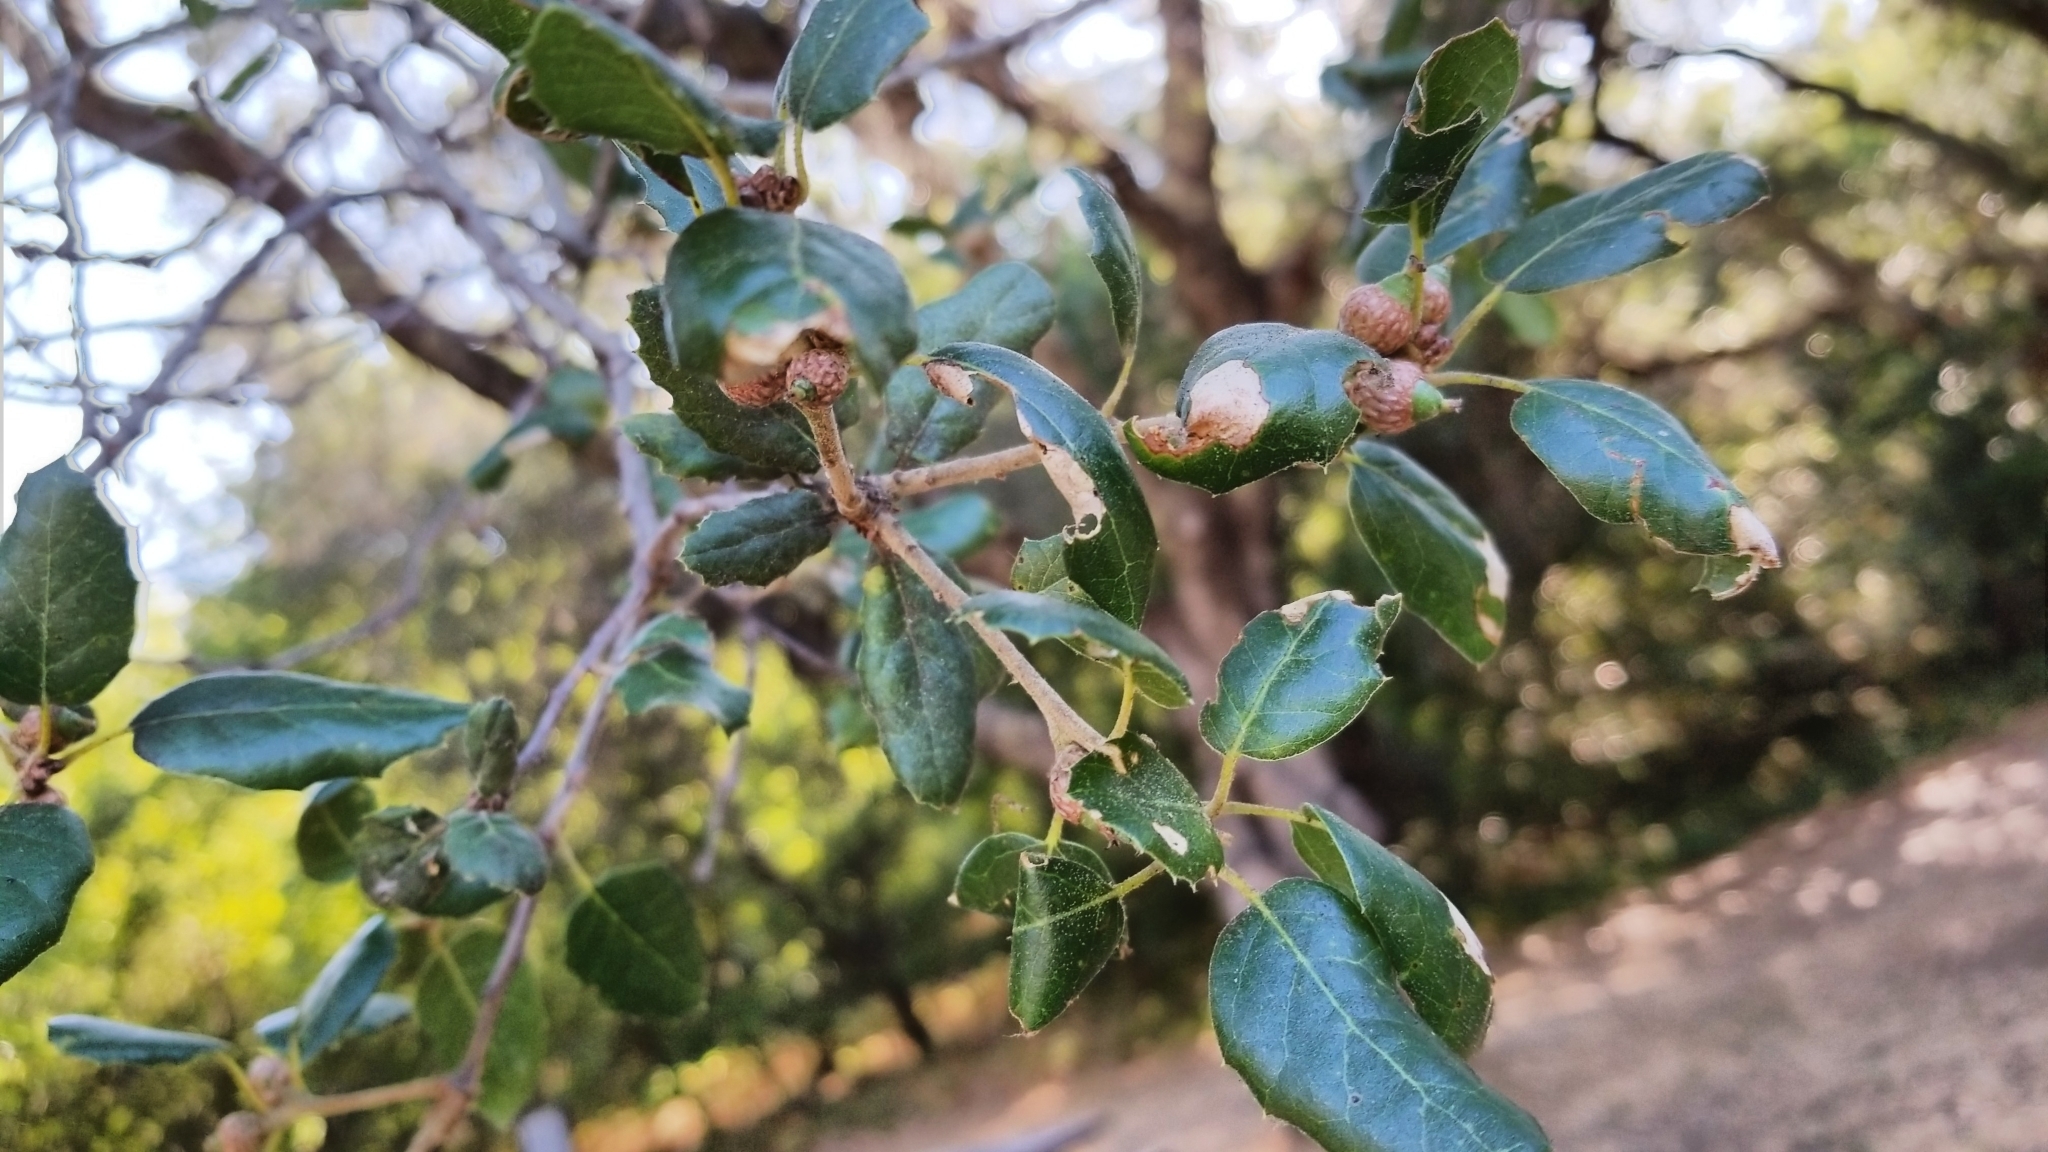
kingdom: Plantae
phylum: Tracheophyta
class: Magnoliopsida
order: Fagales
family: Fagaceae
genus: Quercus
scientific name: Quercus agrifolia
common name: California live oak
